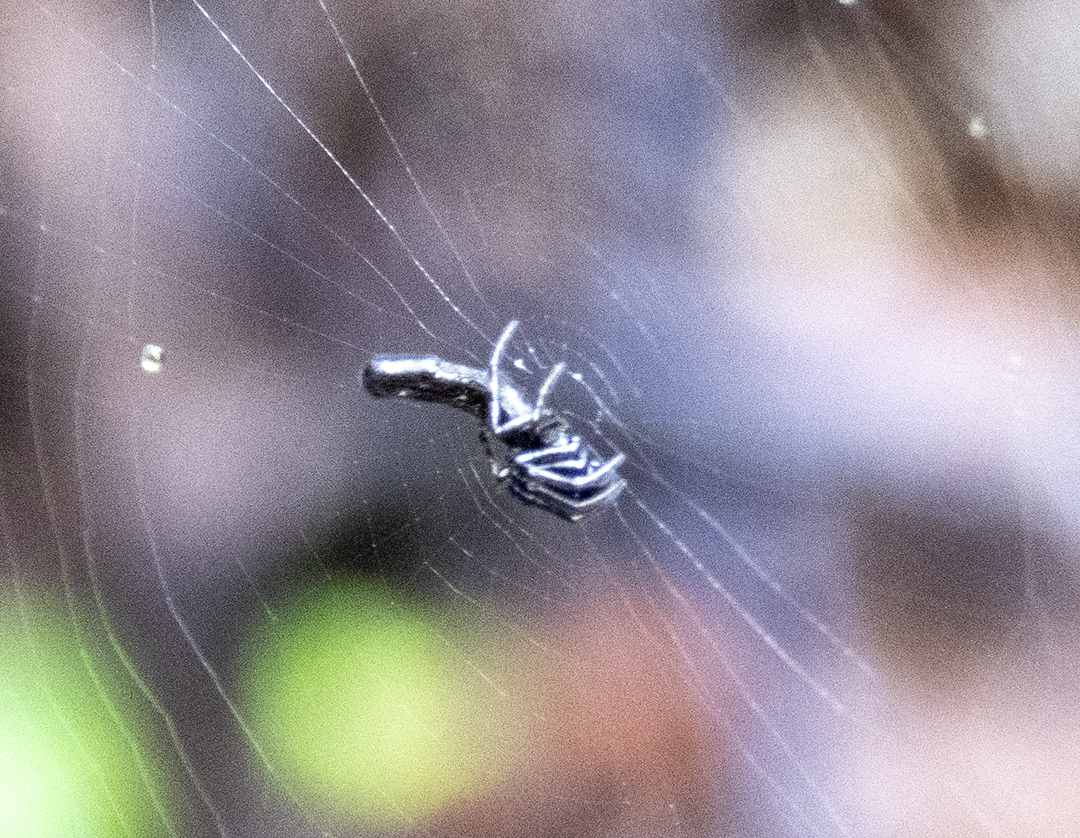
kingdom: Animalia
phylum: Arthropoda
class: Arachnida
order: Araneae
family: Araneidae
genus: Cyclosa
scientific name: Cyclosa bifida
